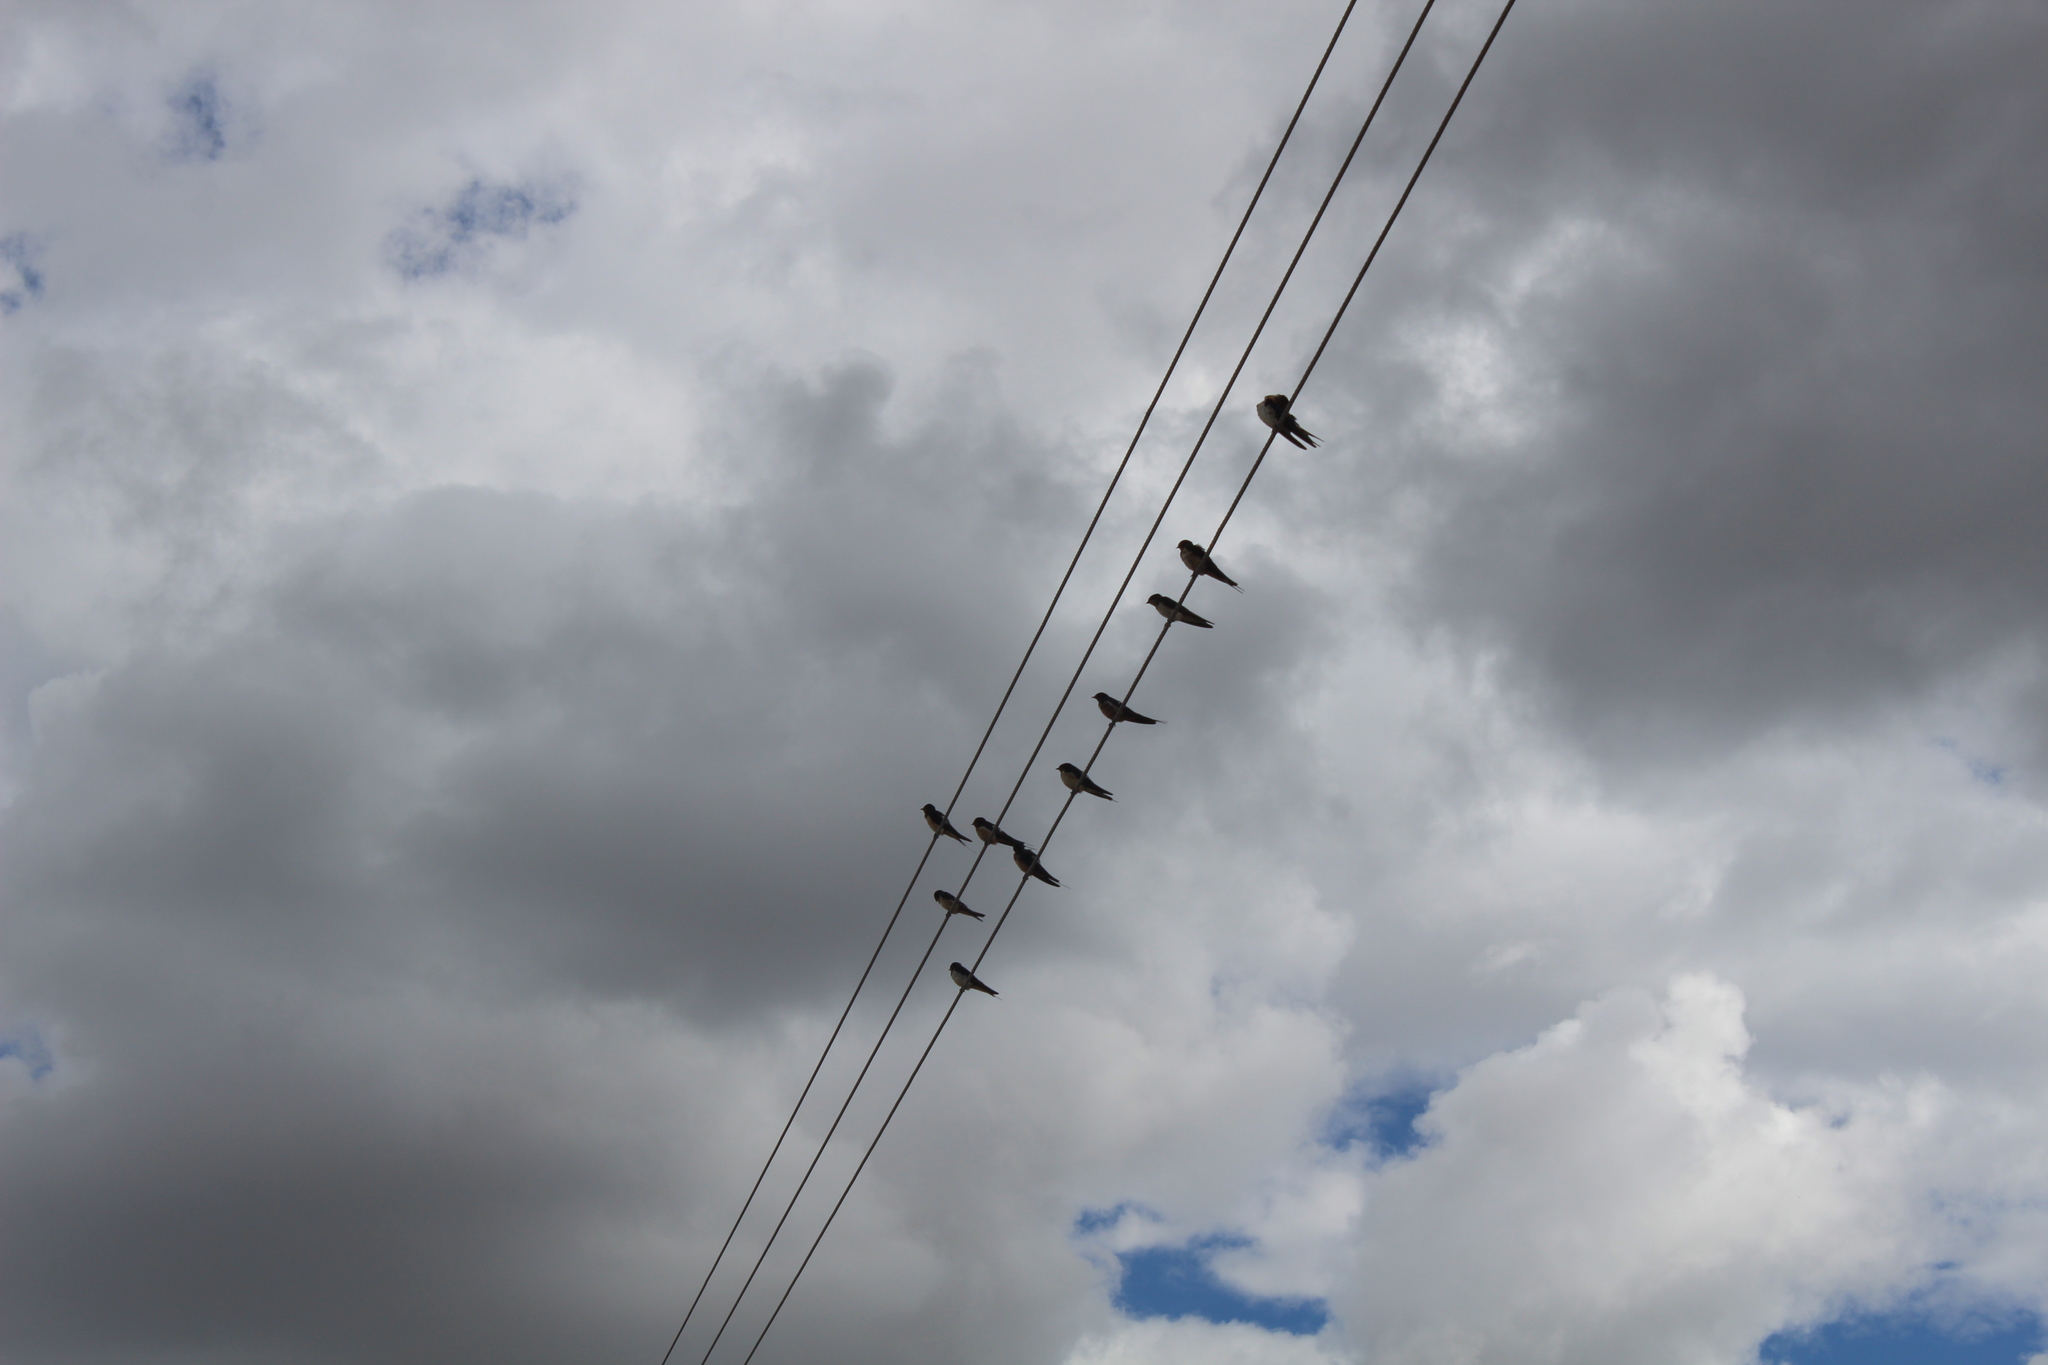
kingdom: Animalia
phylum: Chordata
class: Aves
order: Passeriformes
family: Hirundinidae
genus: Hirundo
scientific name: Hirundo rustica
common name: Barn swallow
